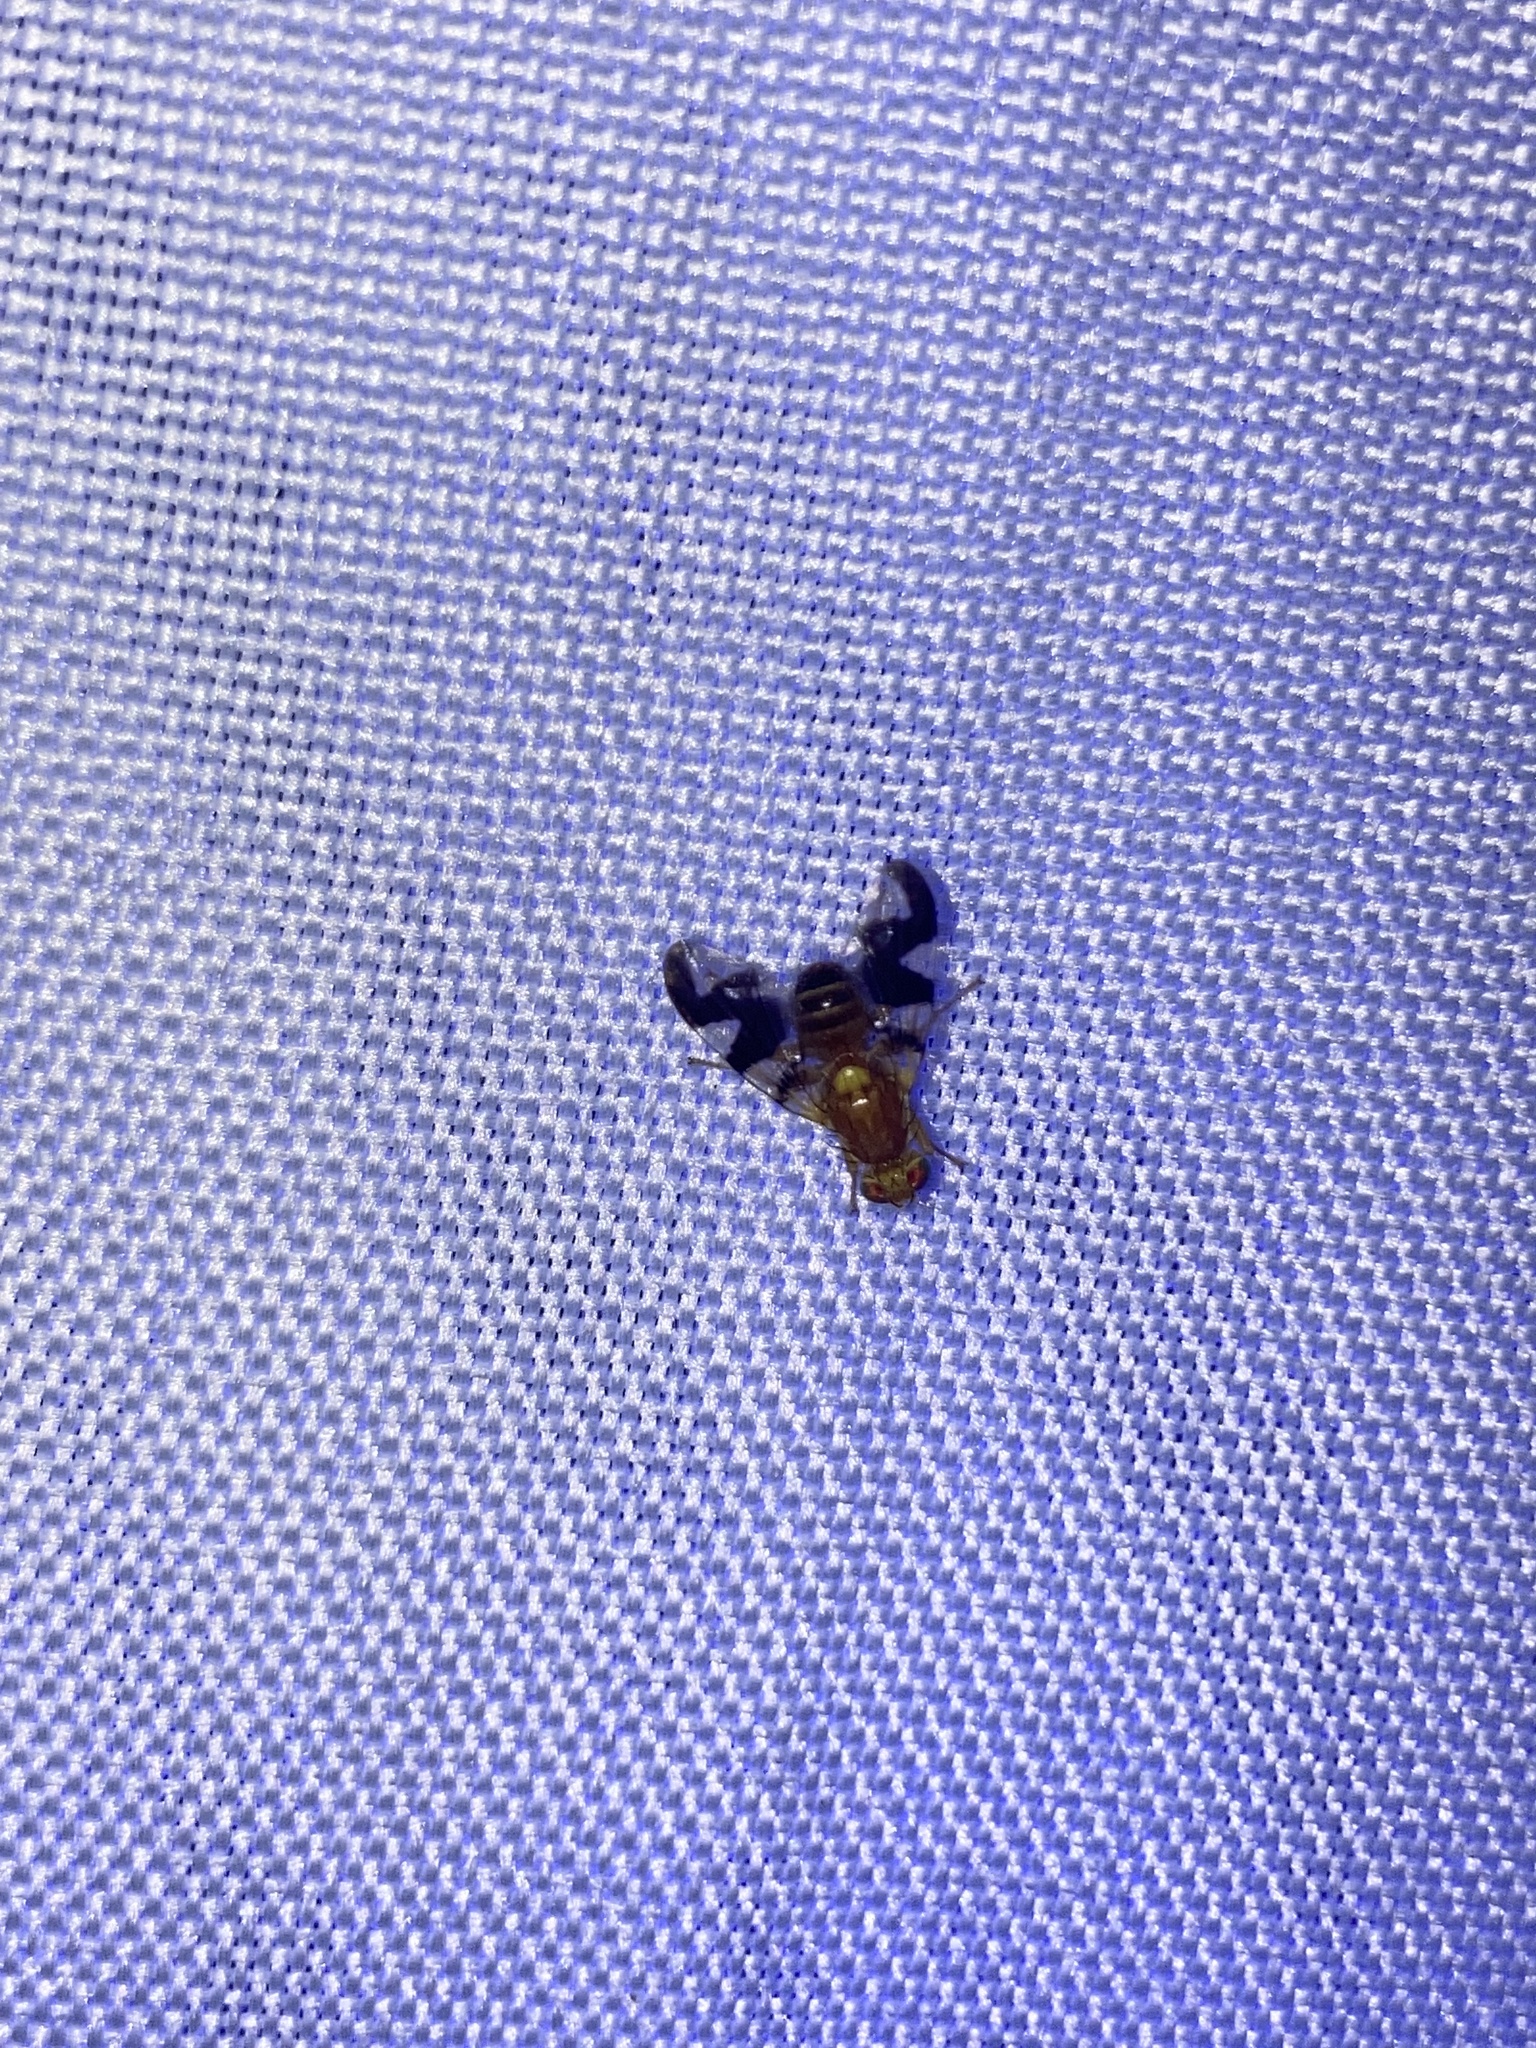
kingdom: Animalia
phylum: Arthropoda
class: Insecta
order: Diptera
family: Tephritidae
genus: Rhagoletis
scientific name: Rhagoletis suavis
